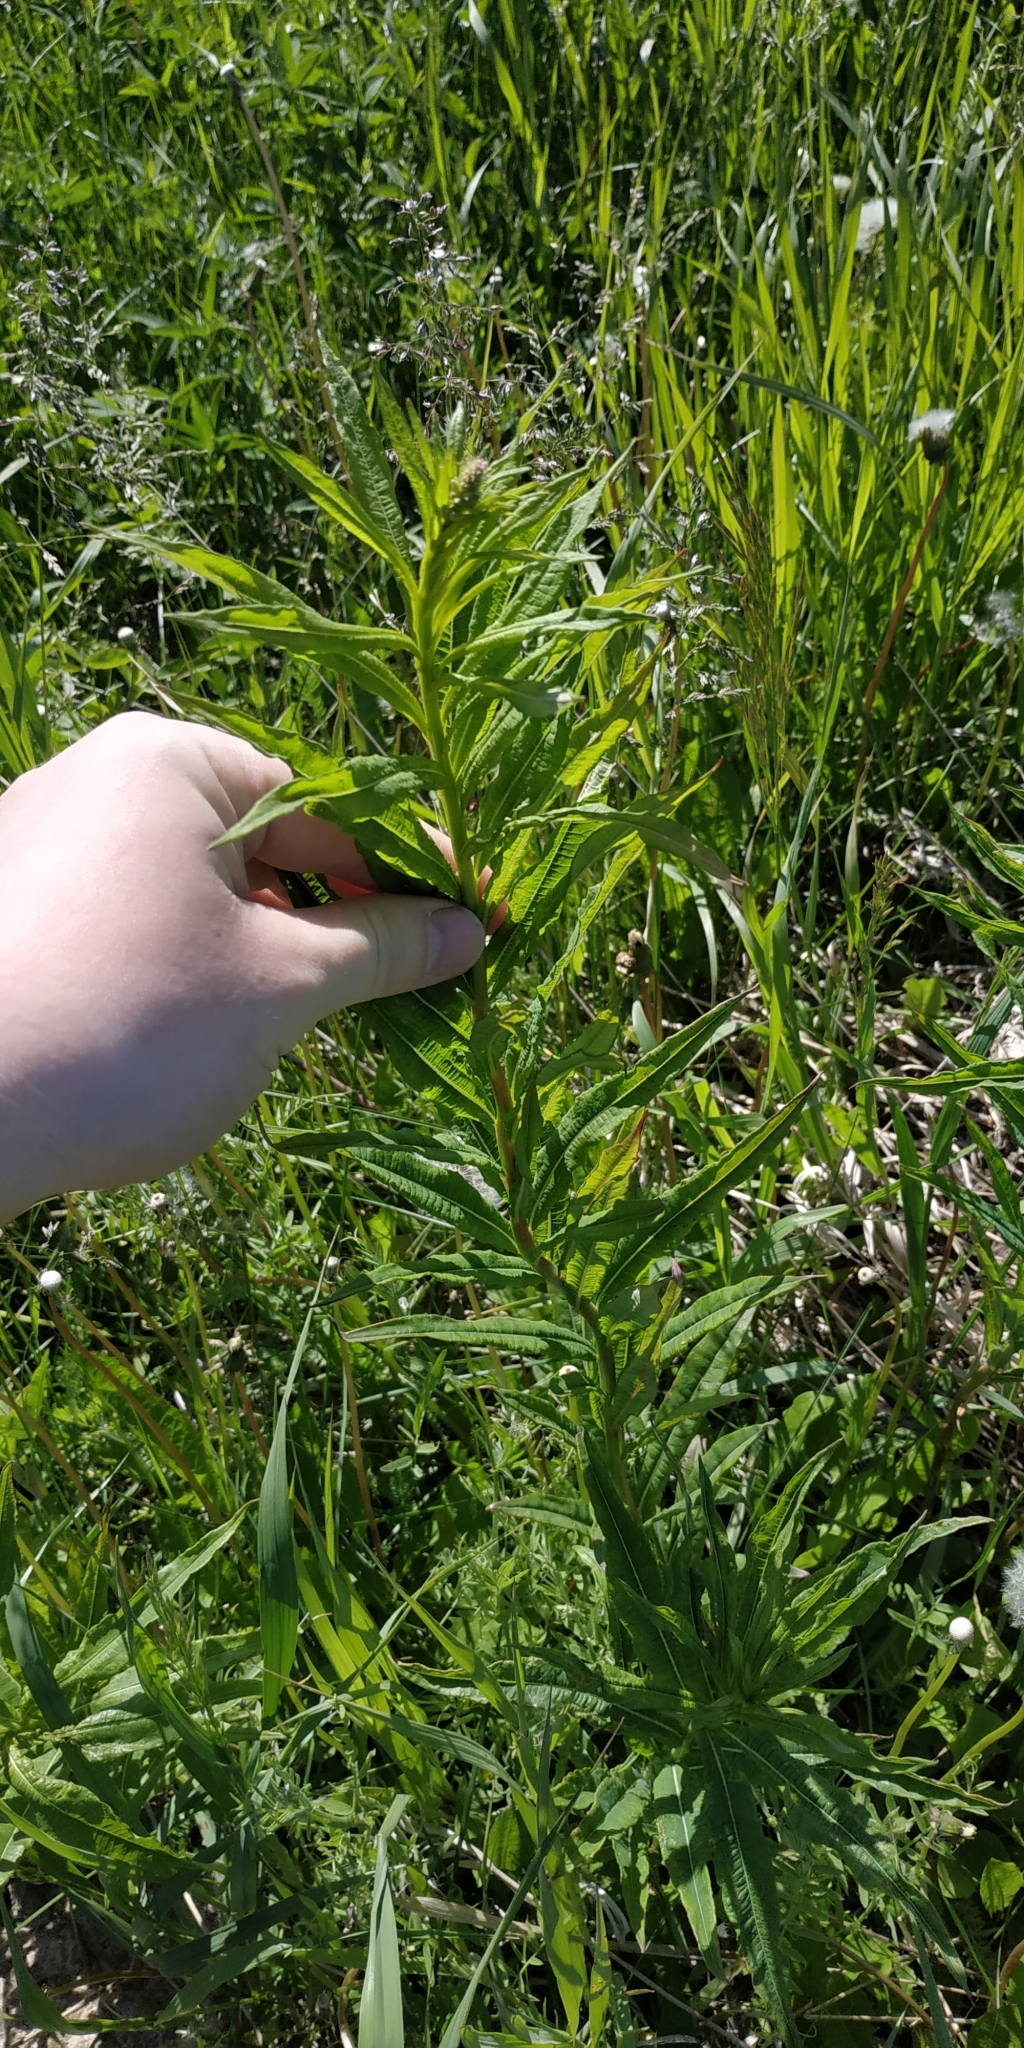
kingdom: Plantae
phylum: Tracheophyta
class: Magnoliopsida
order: Myrtales
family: Onagraceae
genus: Chamaenerion
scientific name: Chamaenerion angustifolium
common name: Fireweed
